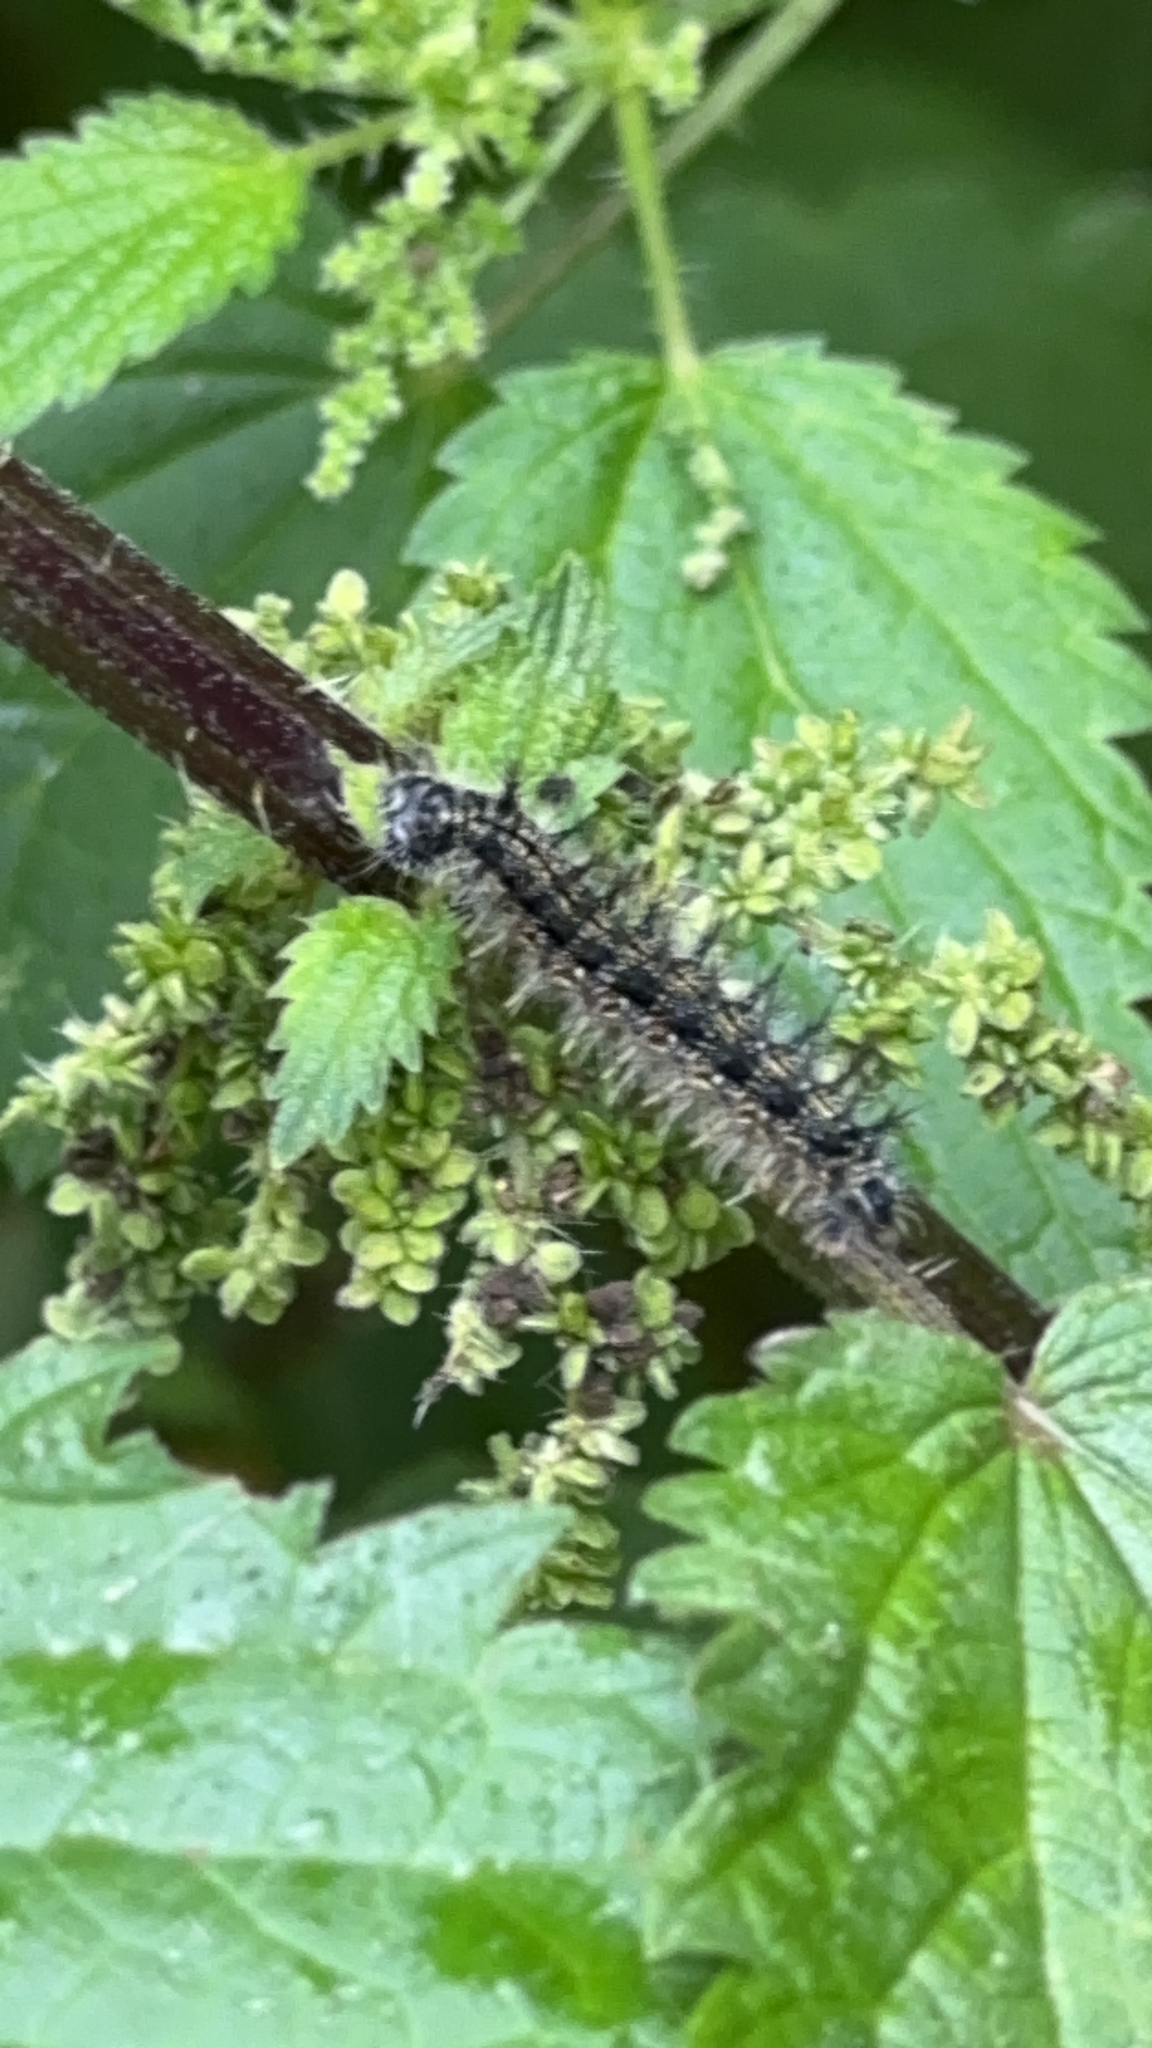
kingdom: Animalia
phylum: Arthropoda
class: Insecta
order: Lepidoptera
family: Nymphalidae
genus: Aglais
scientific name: Aglais urticae
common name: Small tortoiseshell
